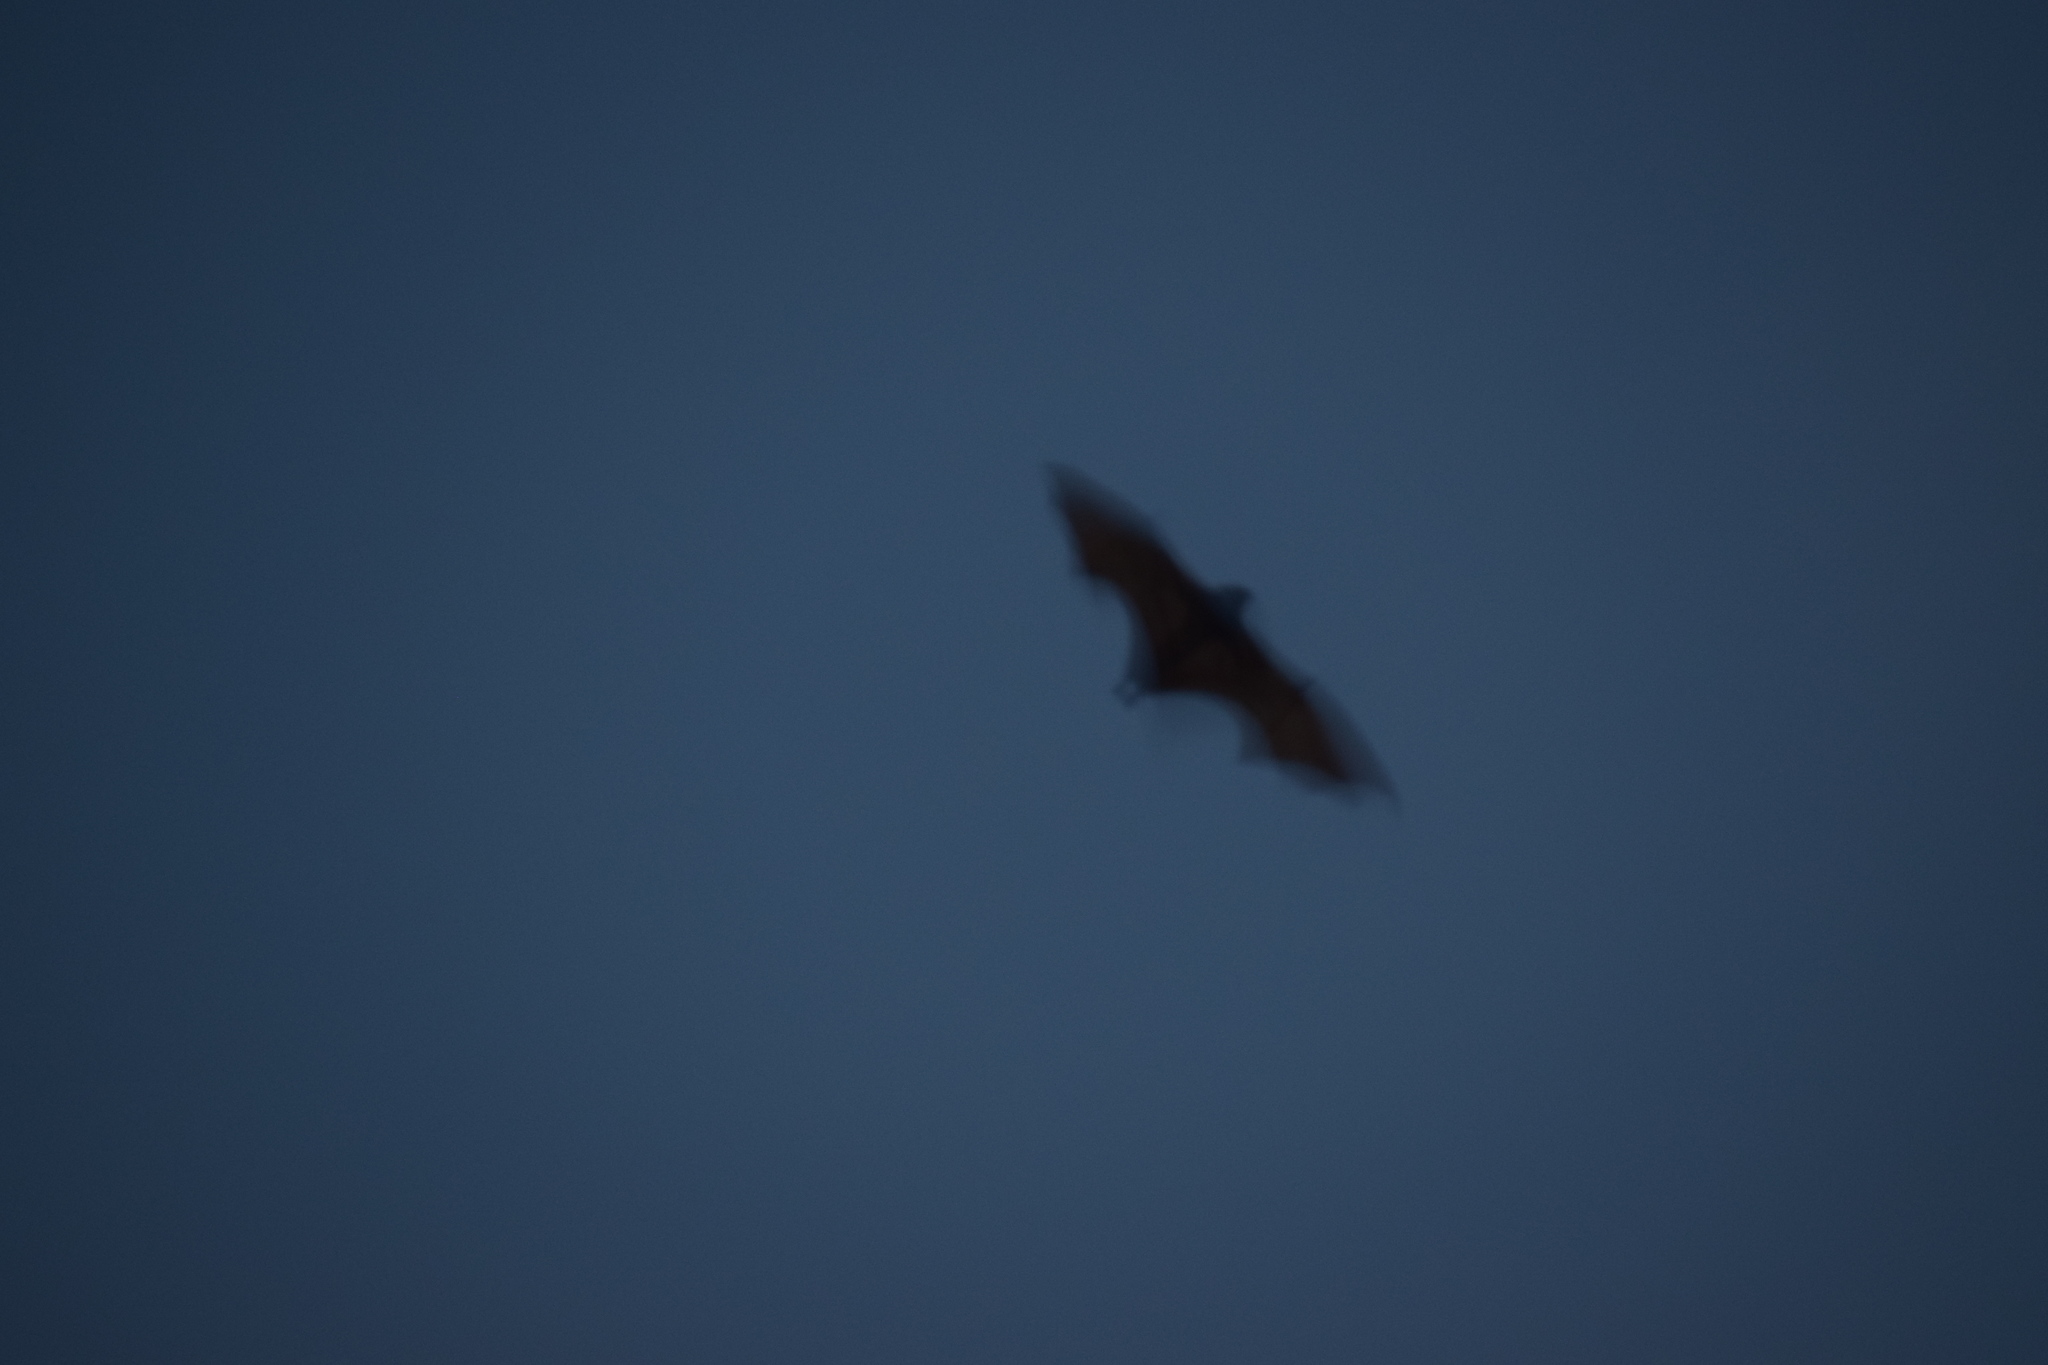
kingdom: Animalia
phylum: Chordata
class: Mammalia
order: Chiroptera
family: Pteropodidae
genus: Pteropus
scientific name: Pteropus
